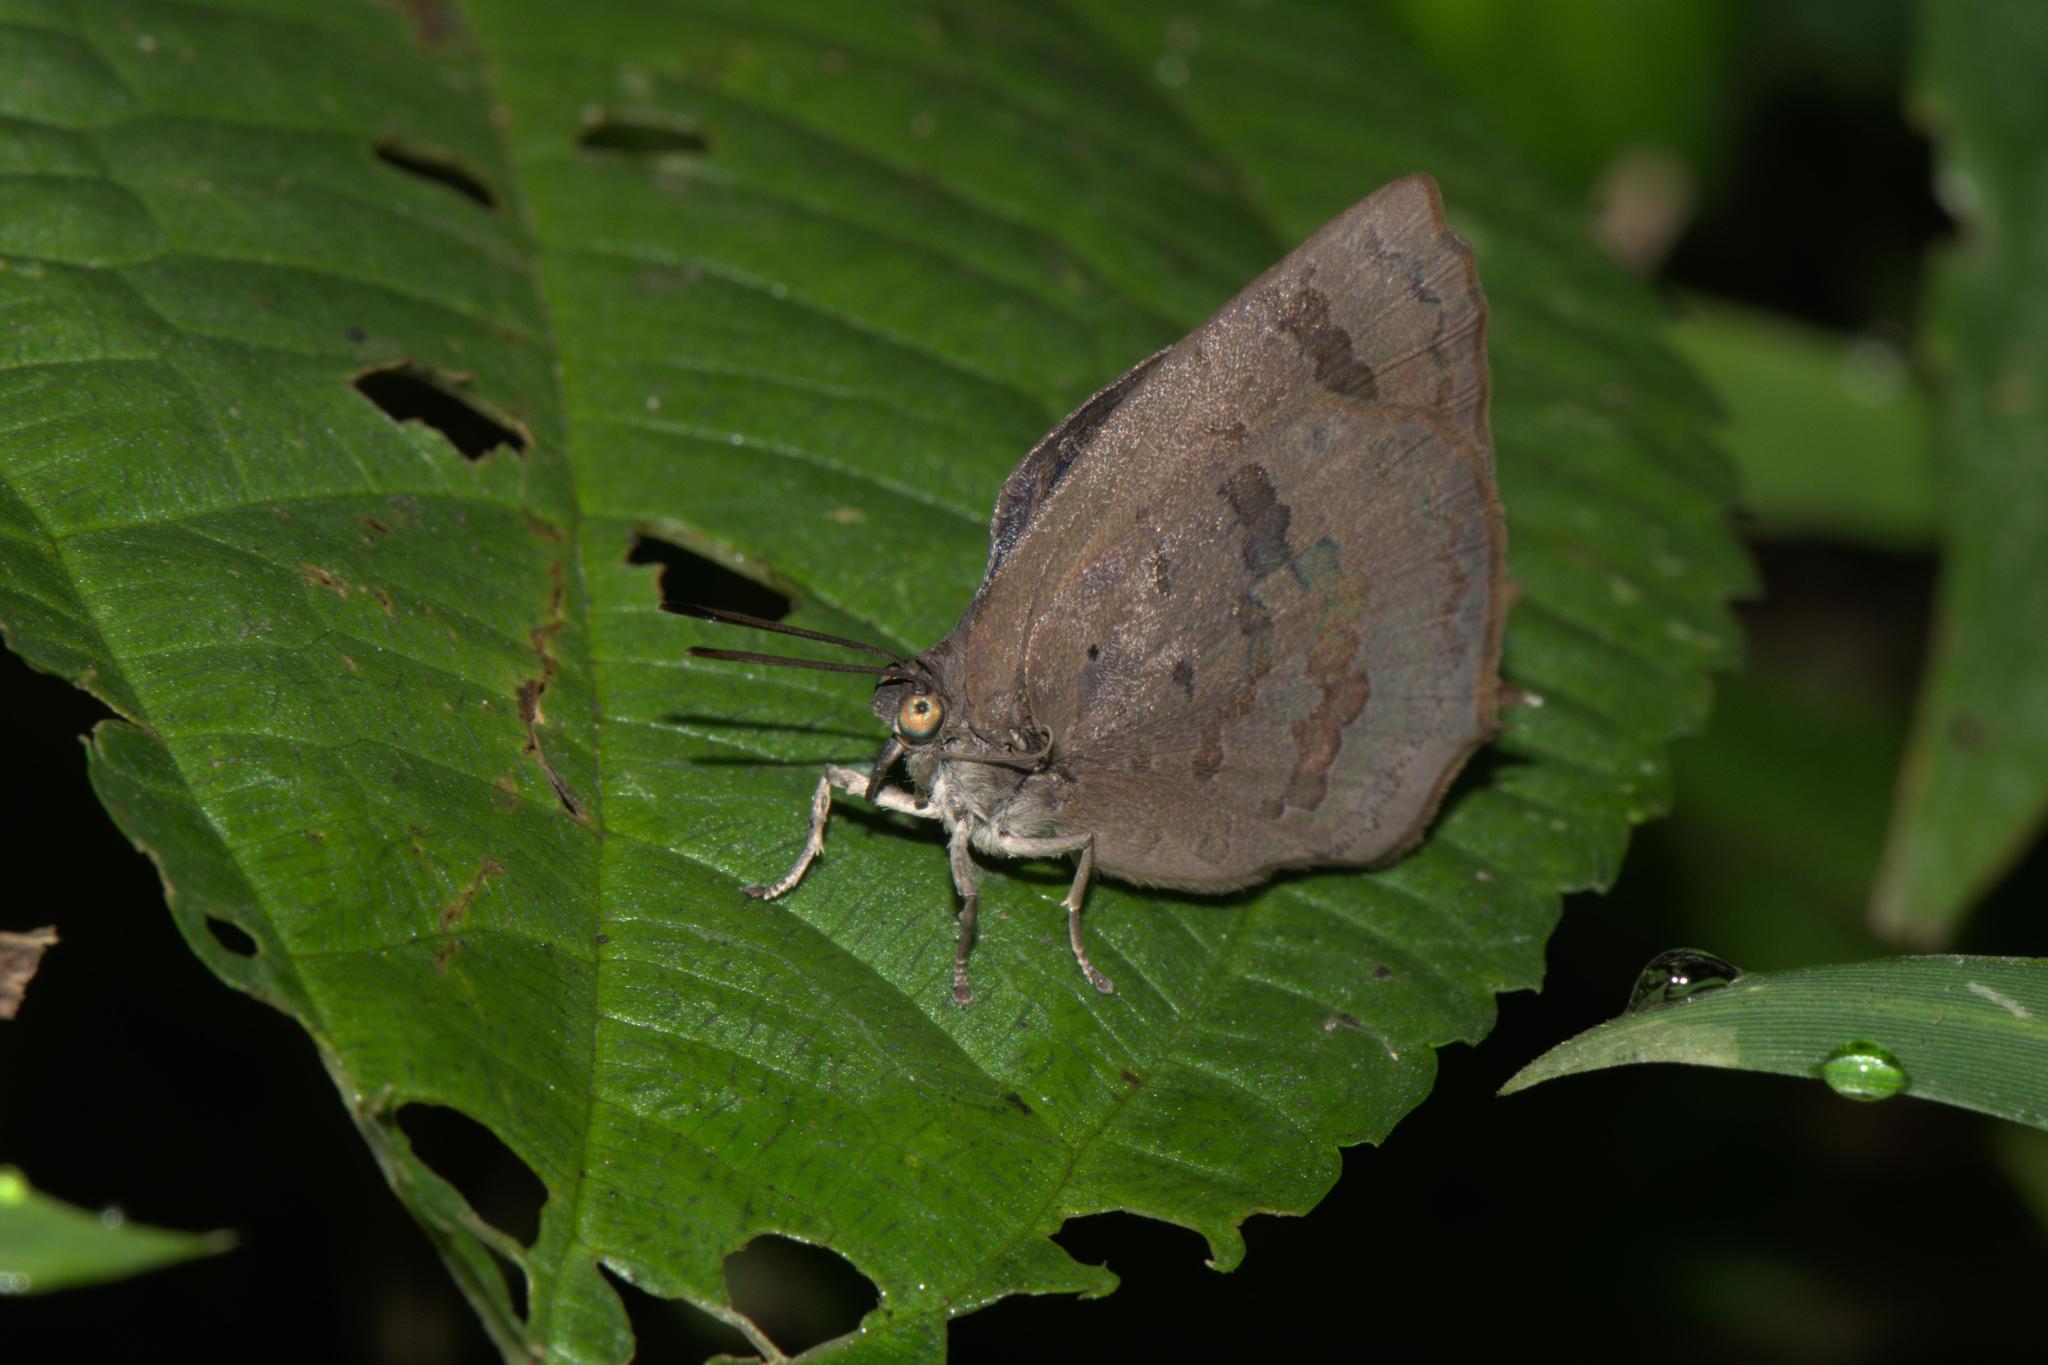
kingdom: Animalia
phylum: Arthropoda
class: Insecta
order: Lepidoptera
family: Lycaenidae
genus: Amblypodia
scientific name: Amblypodia rama
